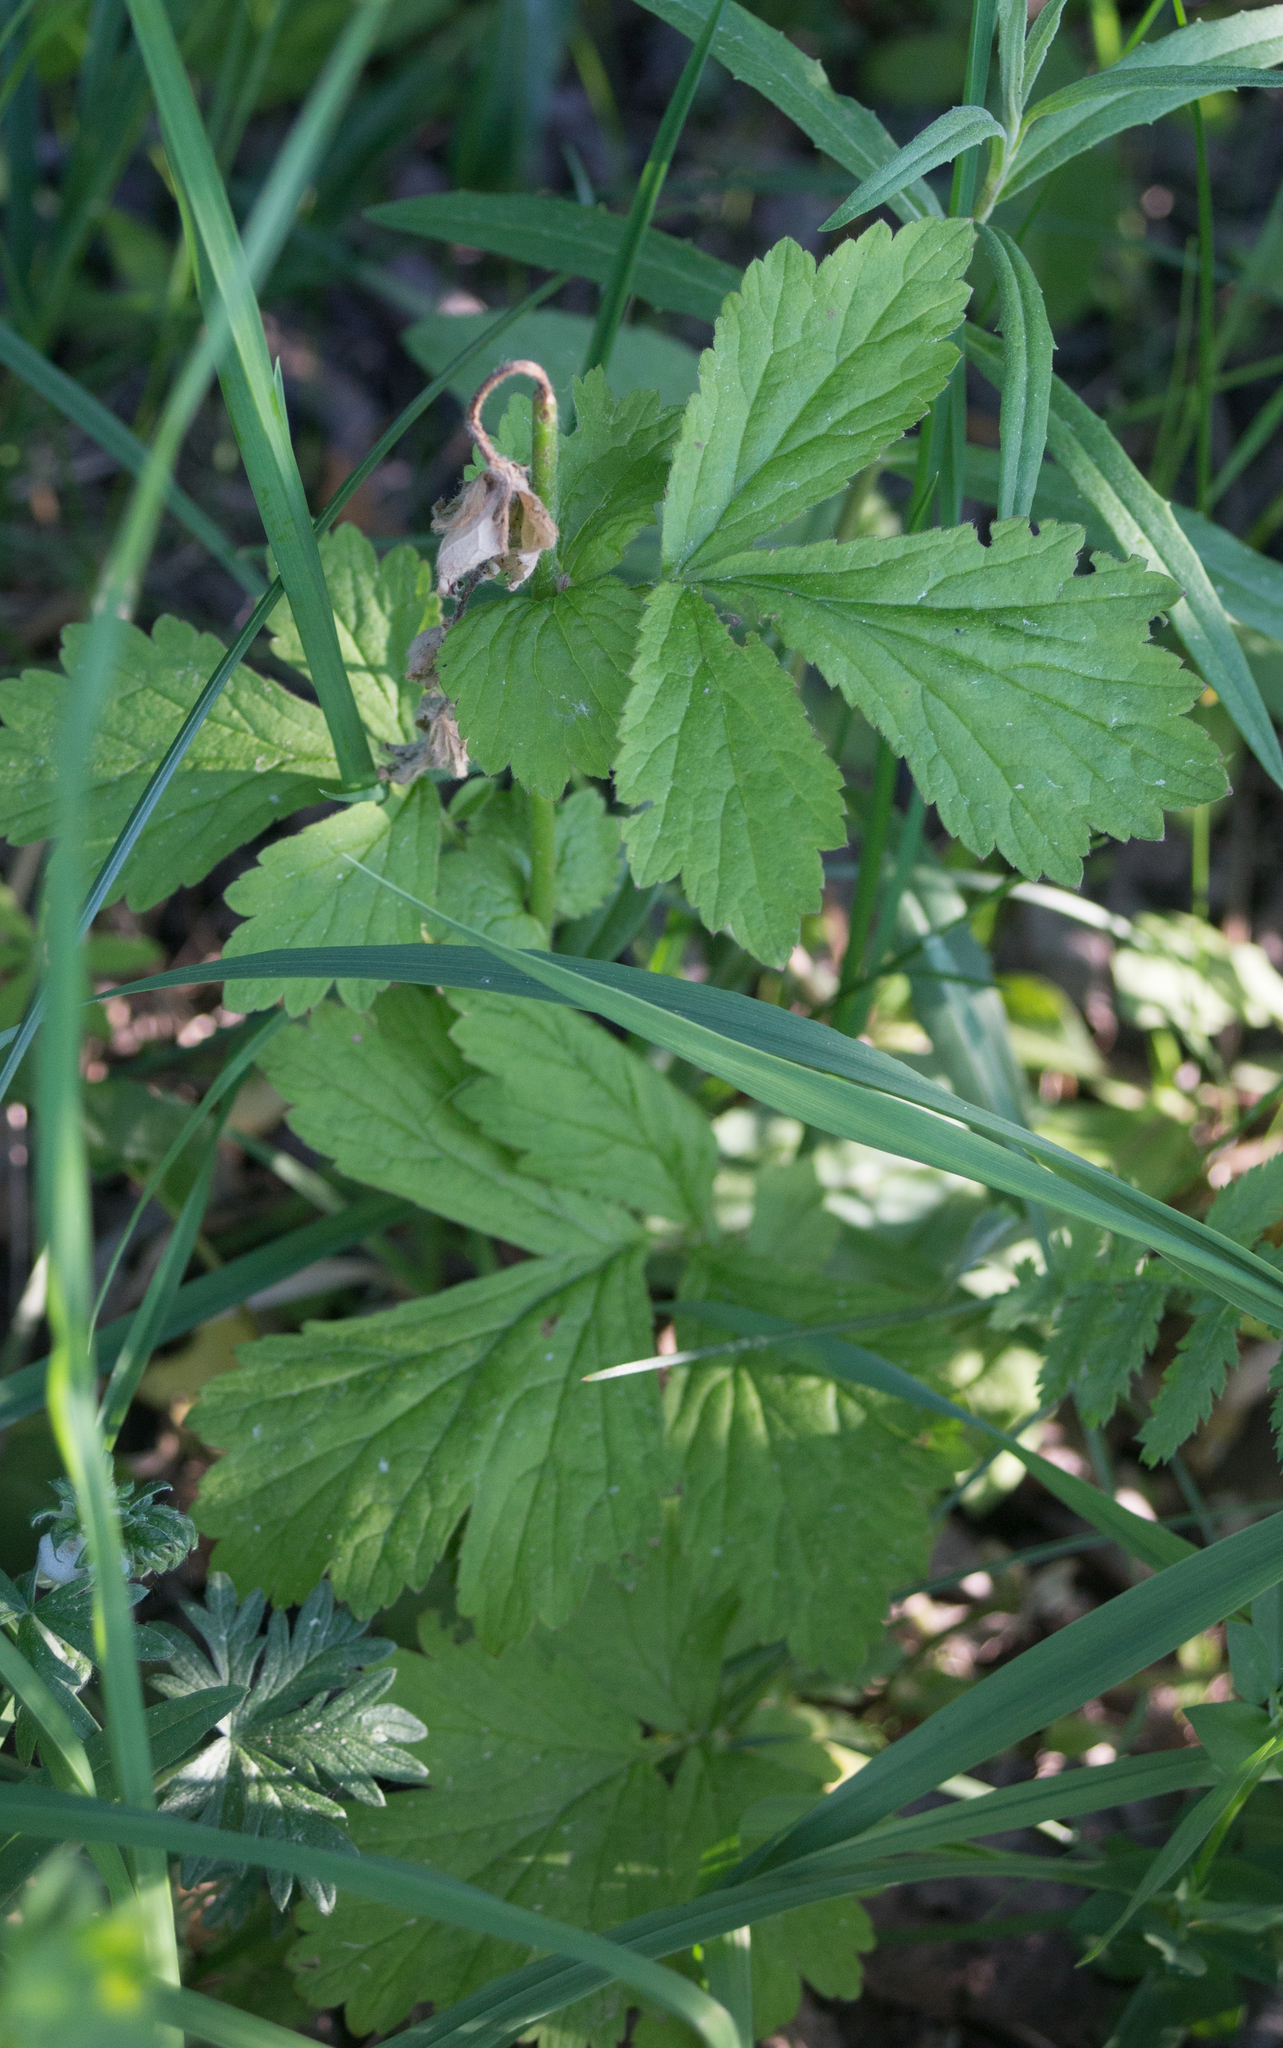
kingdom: Plantae
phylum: Tracheophyta
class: Magnoliopsida
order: Rosales
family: Rosaceae
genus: Geum
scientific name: Geum urbanum
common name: Wood avens
